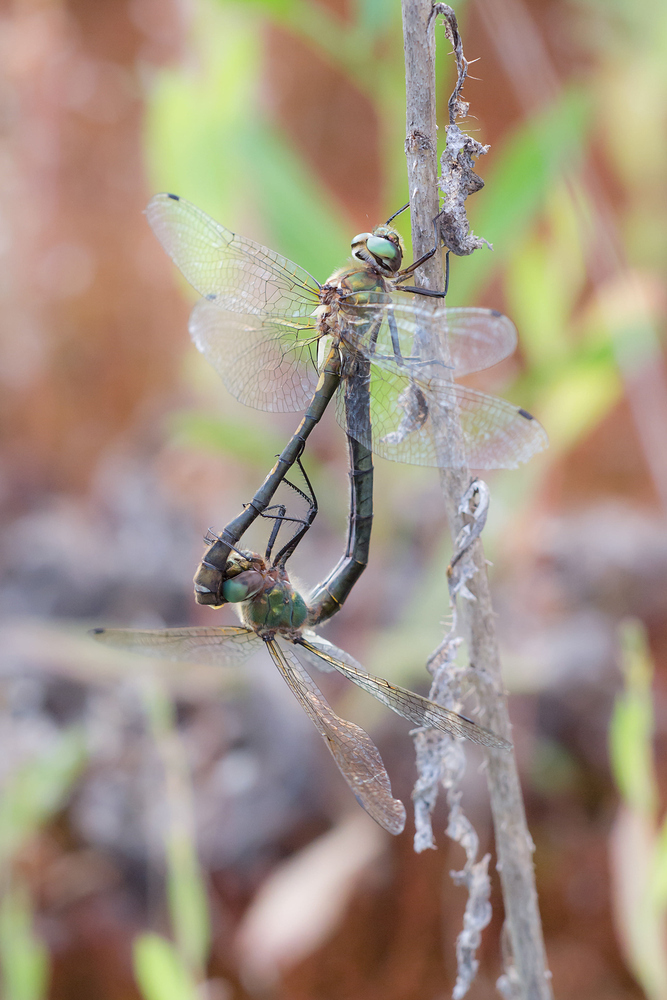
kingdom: Animalia
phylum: Arthropoda
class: Insecta
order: Odonata
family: Corduliidae
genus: Oxygastra
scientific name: Oxygastra curtisii
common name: Orange-spotted emerald
